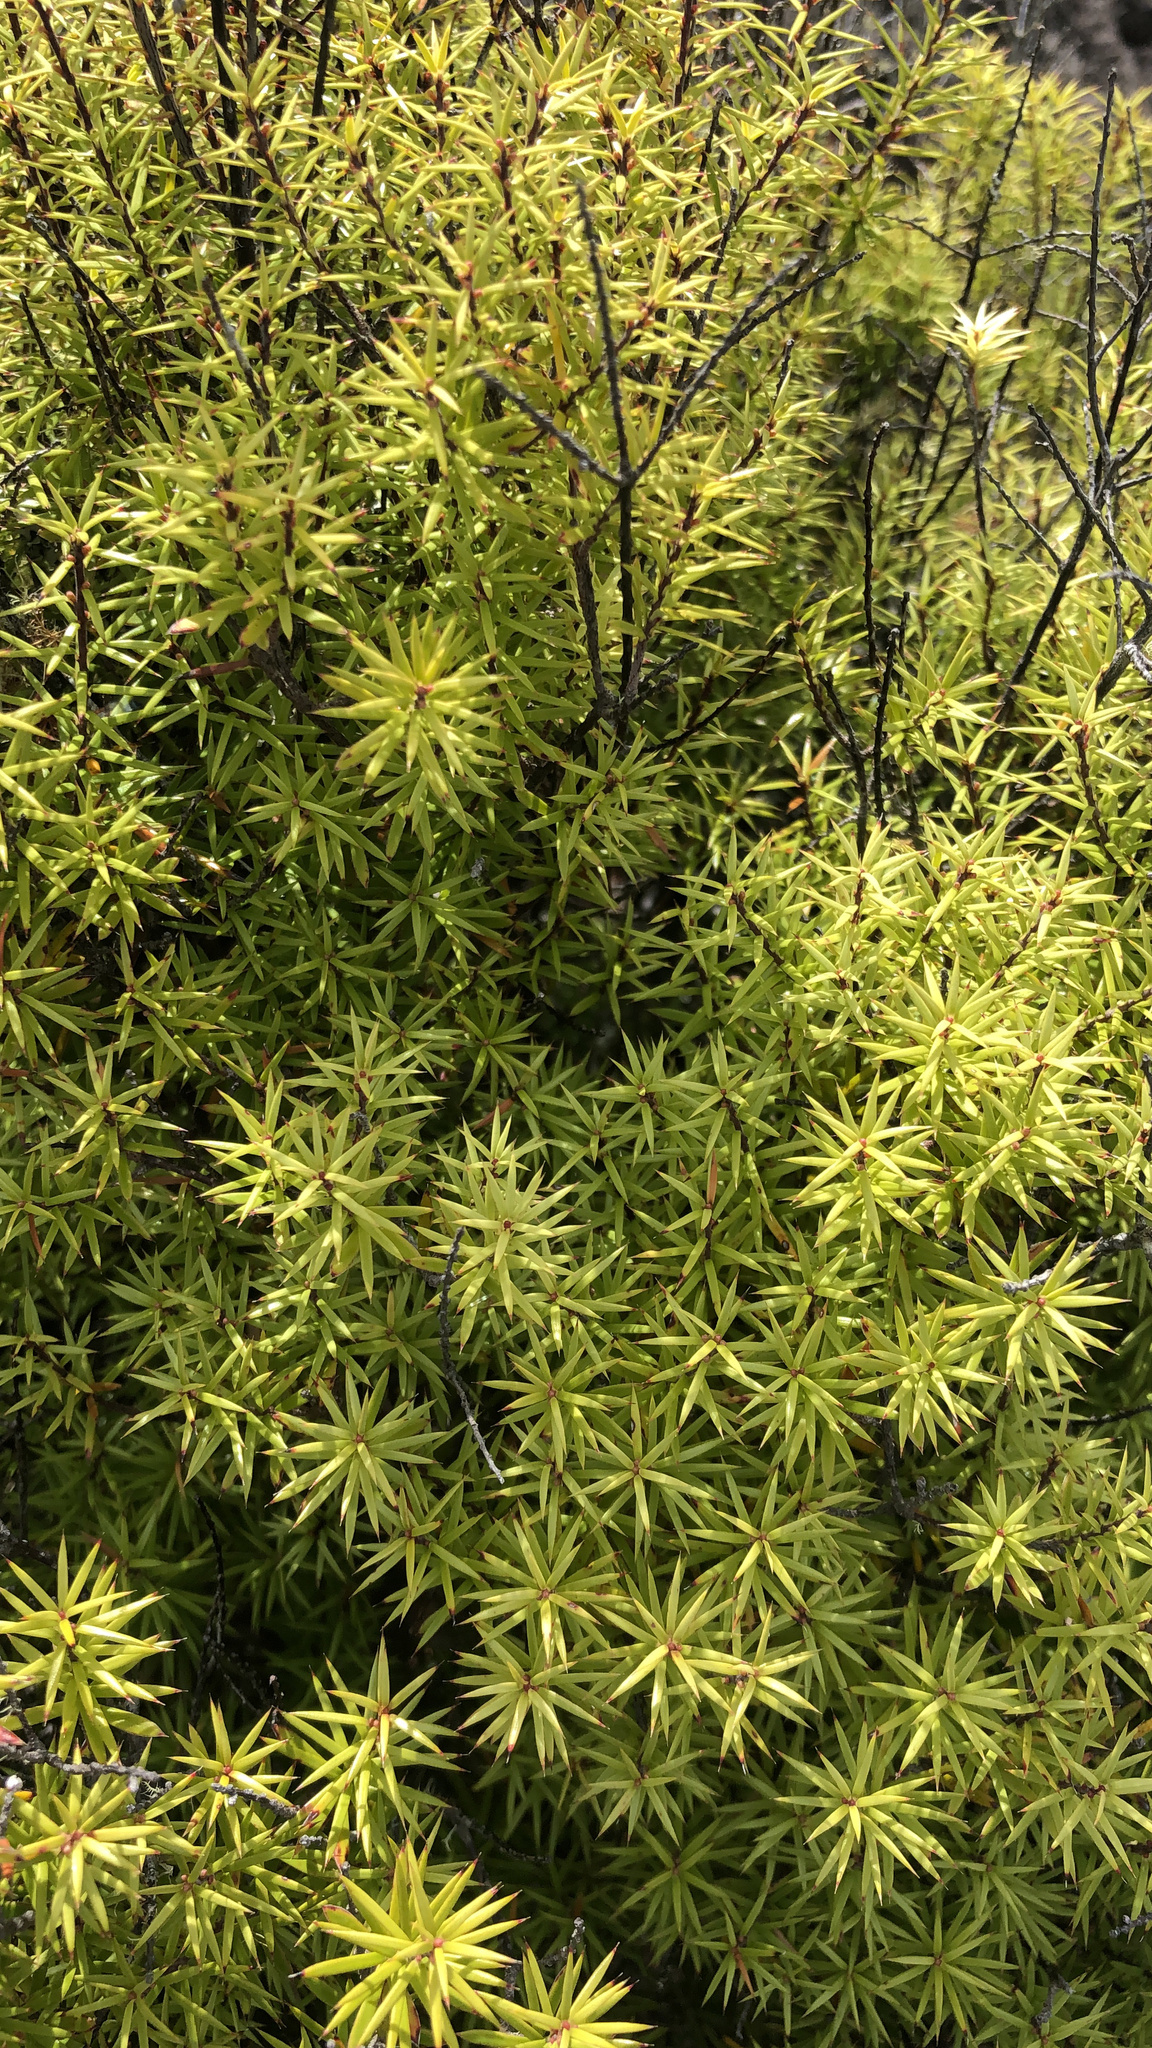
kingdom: Plantae
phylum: Tracheophyta
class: Magnoliopsida
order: Ericales
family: Ericaceae
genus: Leptecophylla
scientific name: Leptecophylla juniperina
